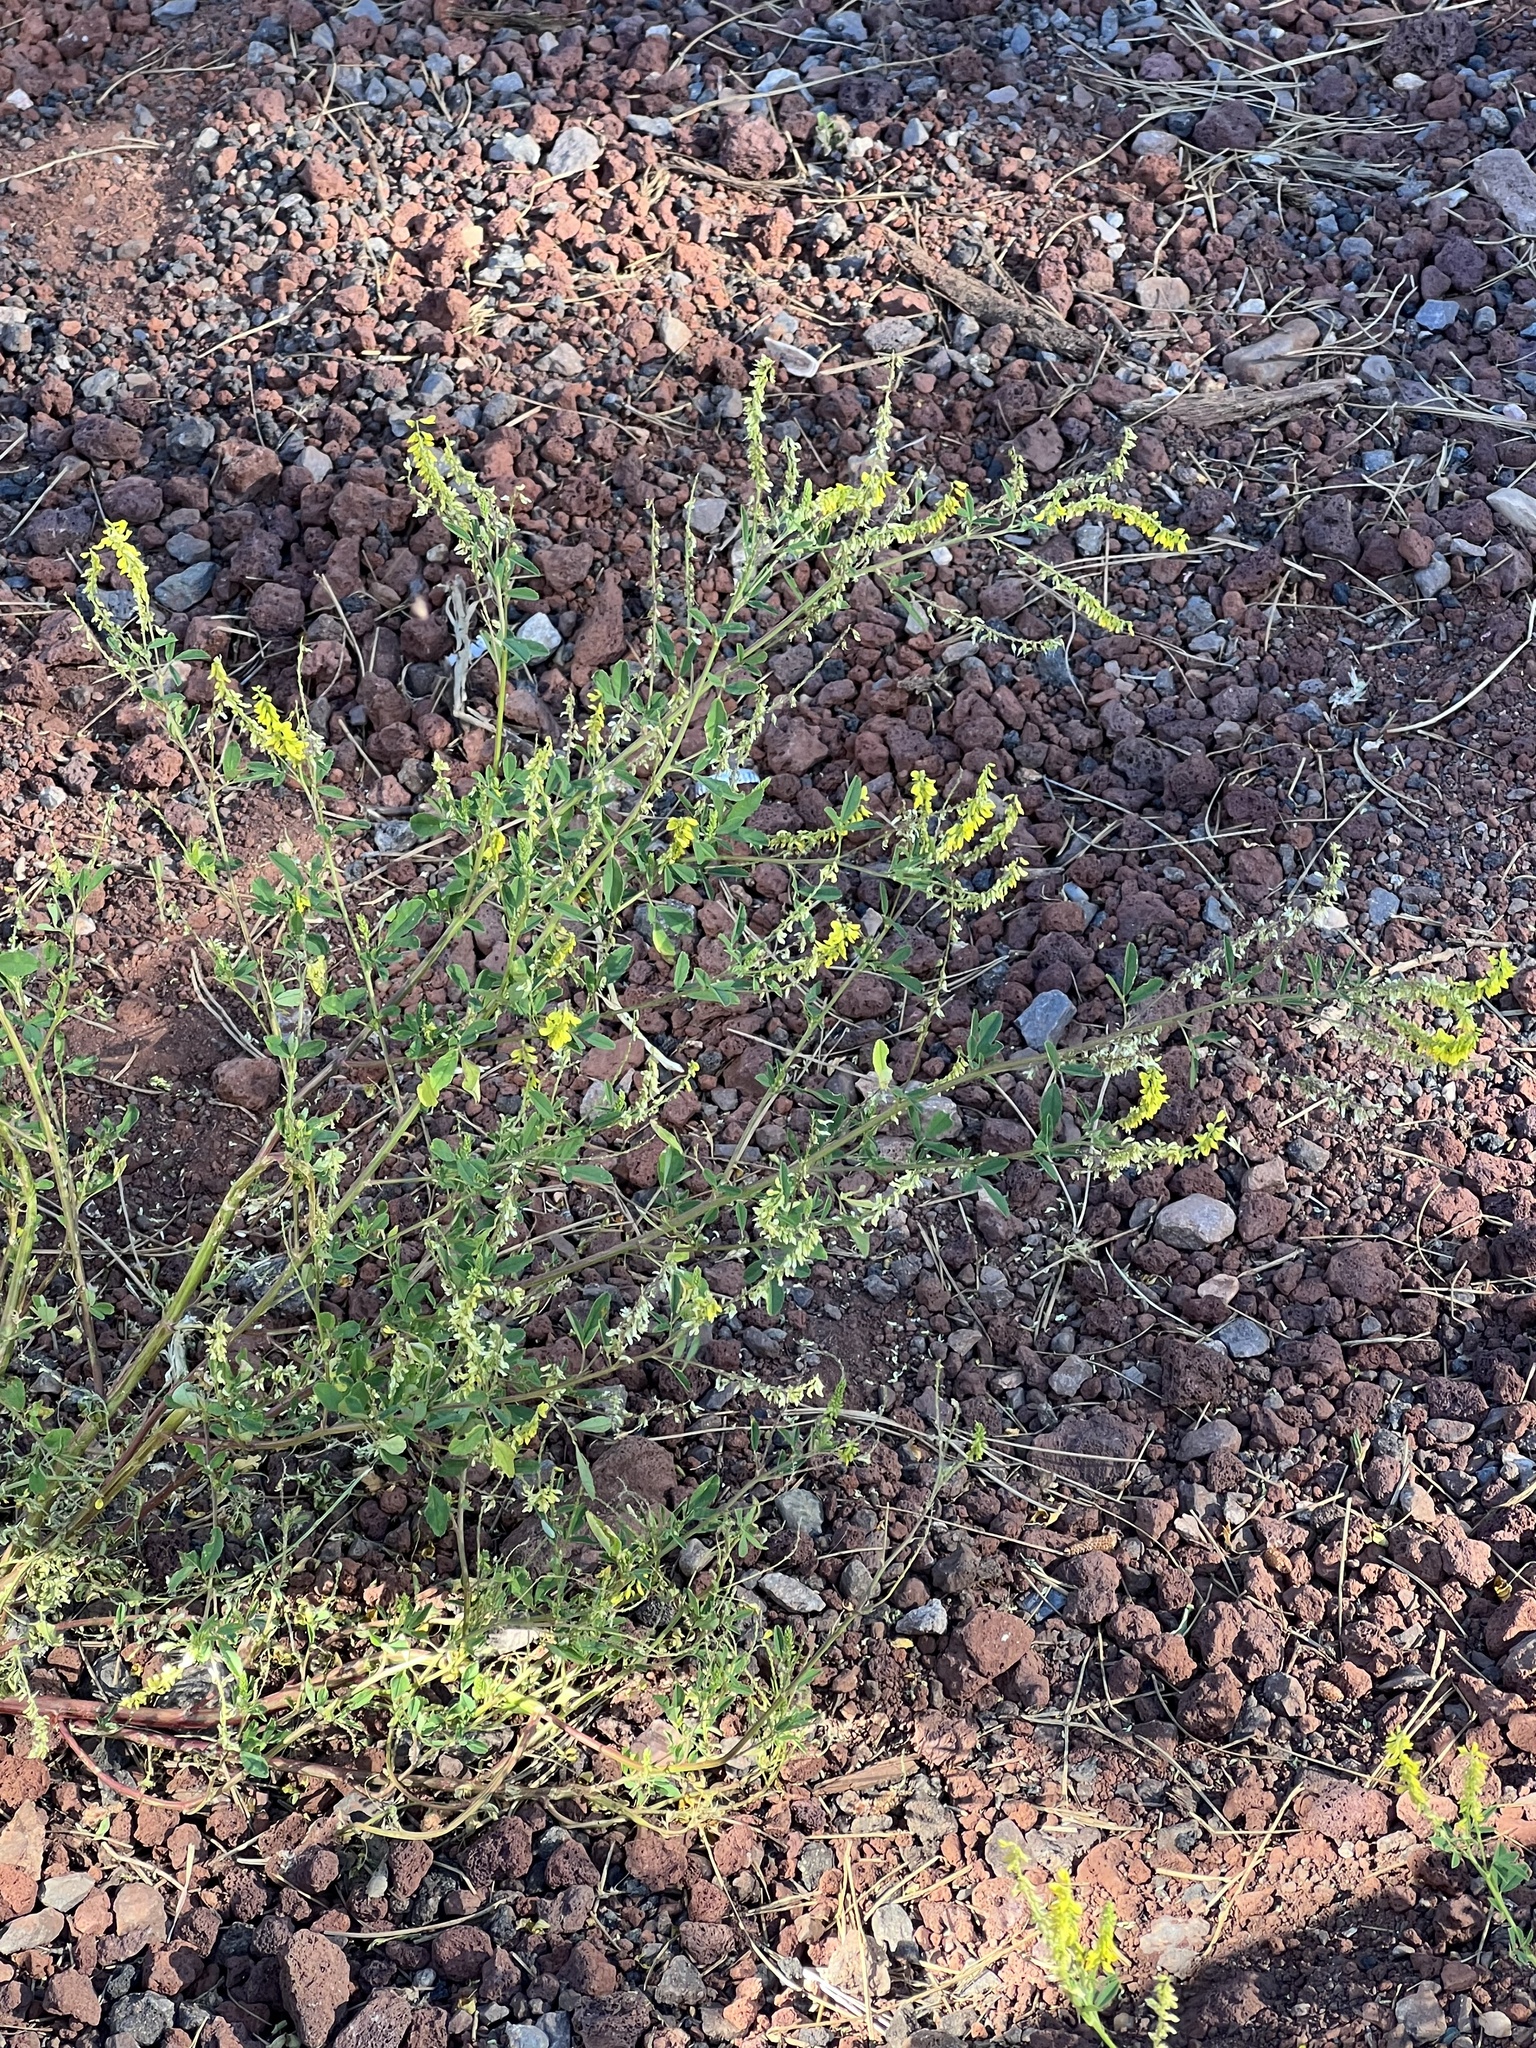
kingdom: Plantae
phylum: Tracheophyta
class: Magnoliopsida
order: Fabales
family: Fabaceae
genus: Melilotus
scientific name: Melilotus officinalis
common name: Sweetclover
